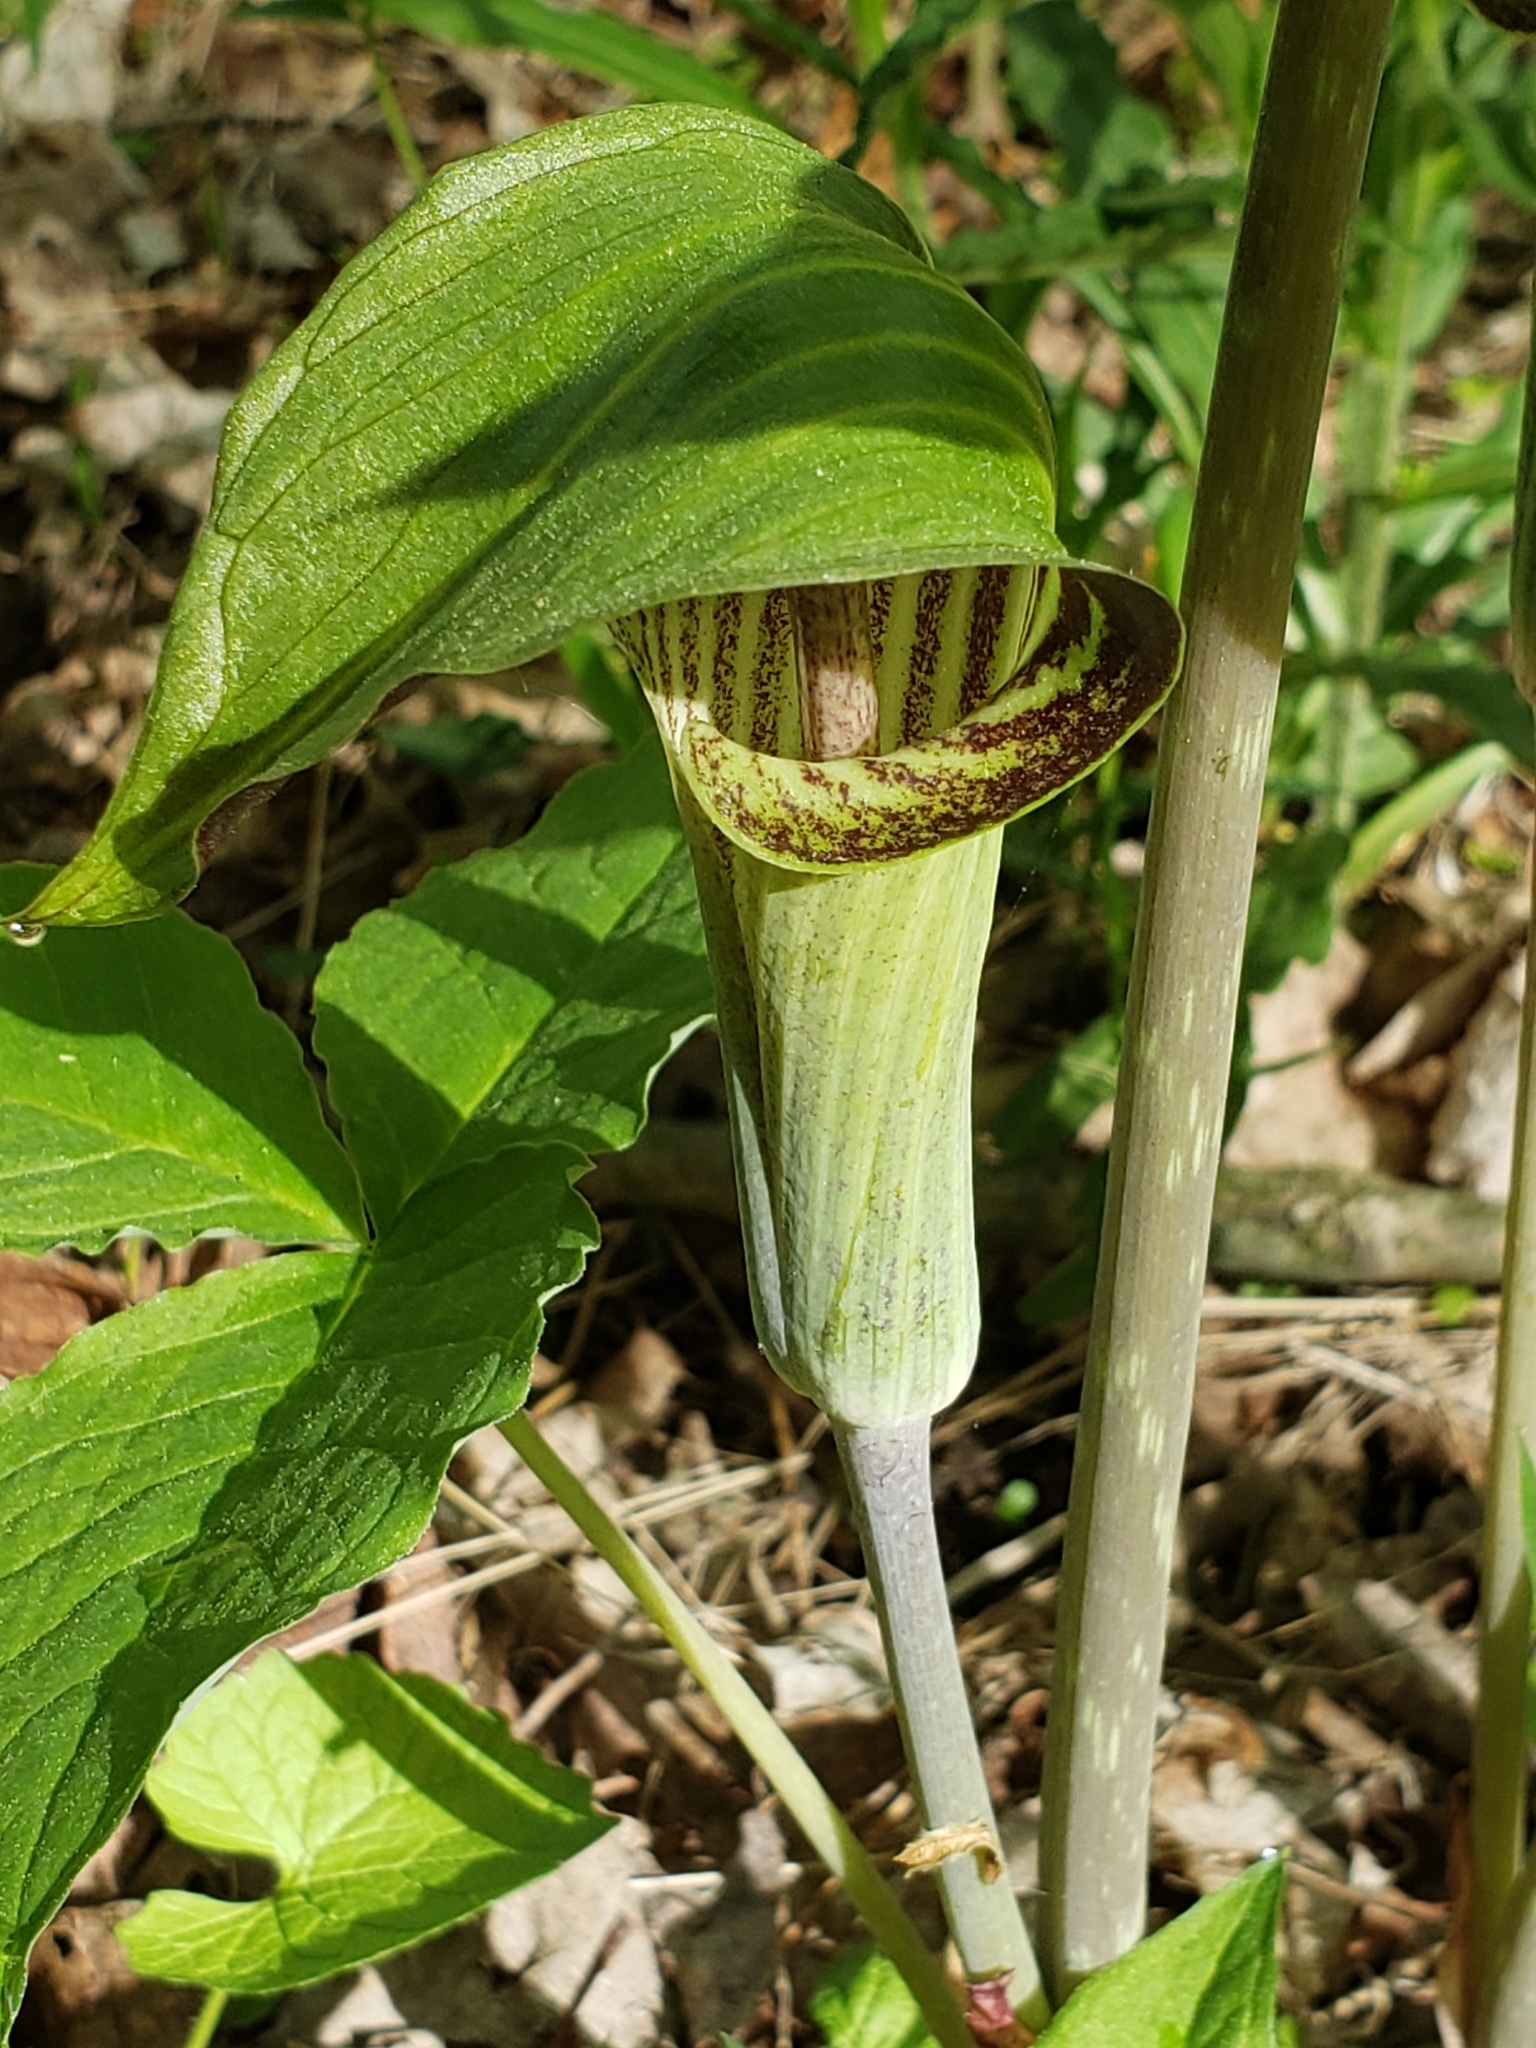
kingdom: Plantae
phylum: Tracheophyta
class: Liliopsida
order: Alismatales
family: Araceae
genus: Arisaema
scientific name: Arisaema triphyllum
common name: Jack-in-the-pulpit
